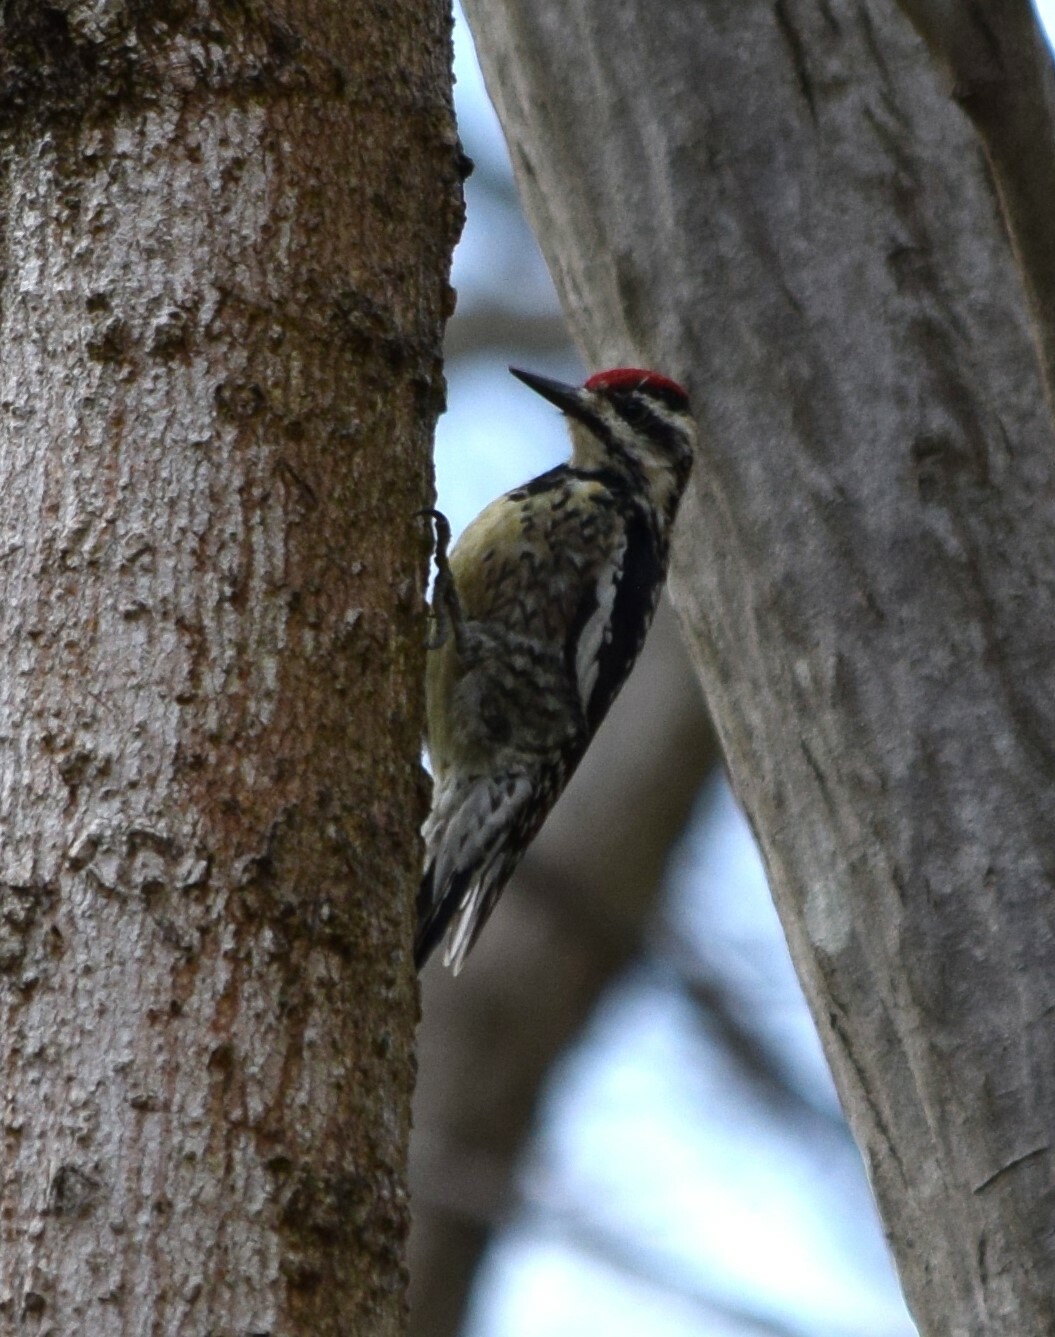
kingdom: Animalia
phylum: Chordata
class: Aves
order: Piciformes
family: Picidae
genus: Sphyrapicus
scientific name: Sphyrapicus varius
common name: Yellow-bellied sapsucker
